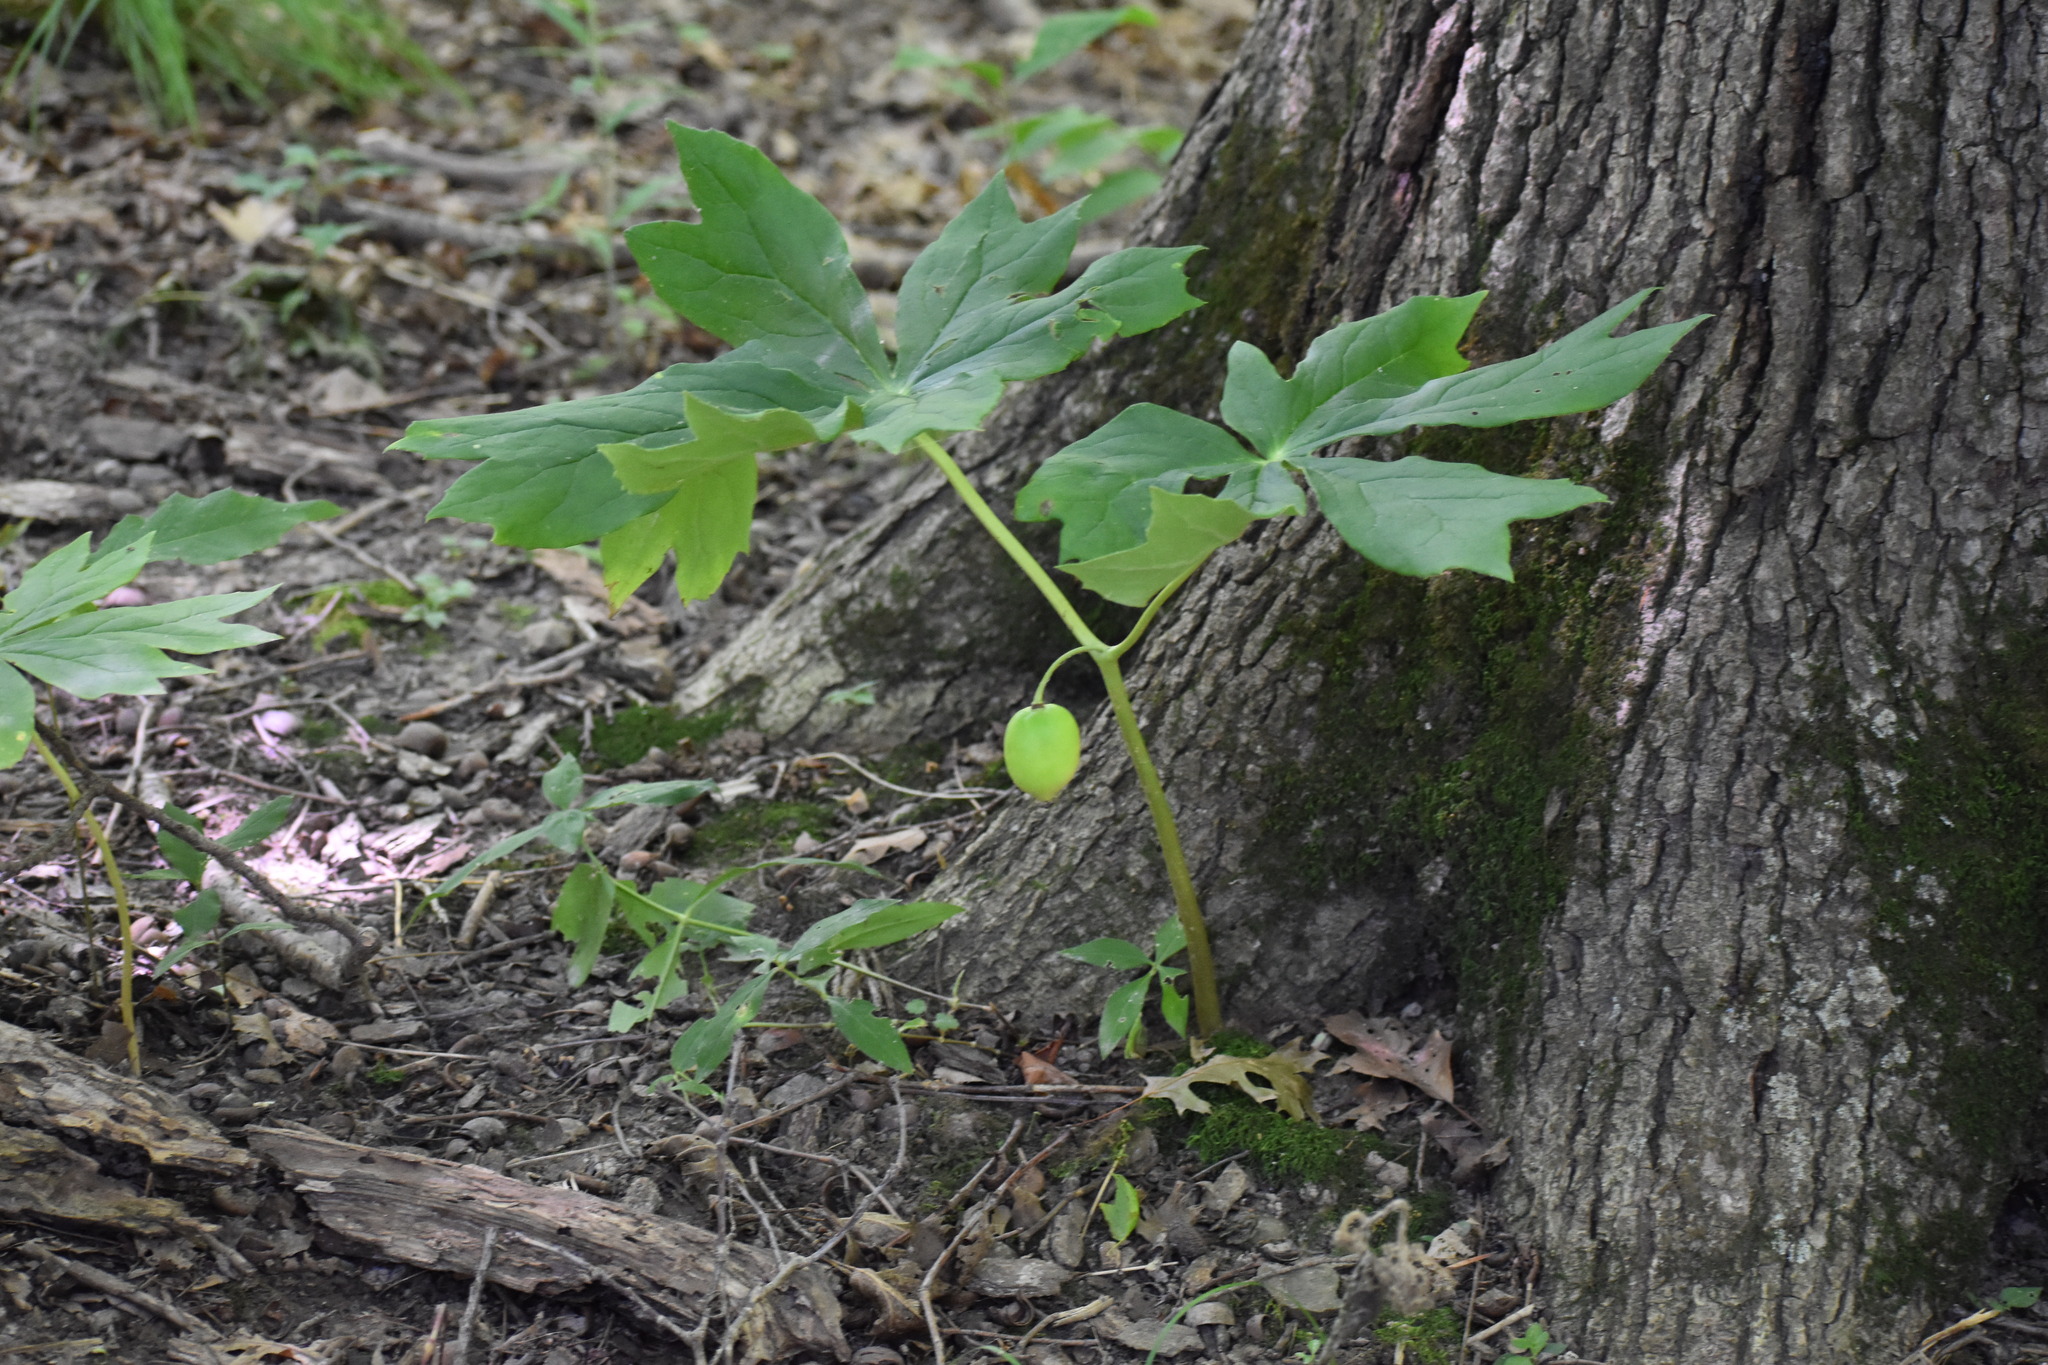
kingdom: Plantae
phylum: Tracheophyta
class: Magnoliopsida
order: Ranunculales
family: Berberidaceae
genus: Podophyllum
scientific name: Podophyllum peltatum
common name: Wild mandrake
